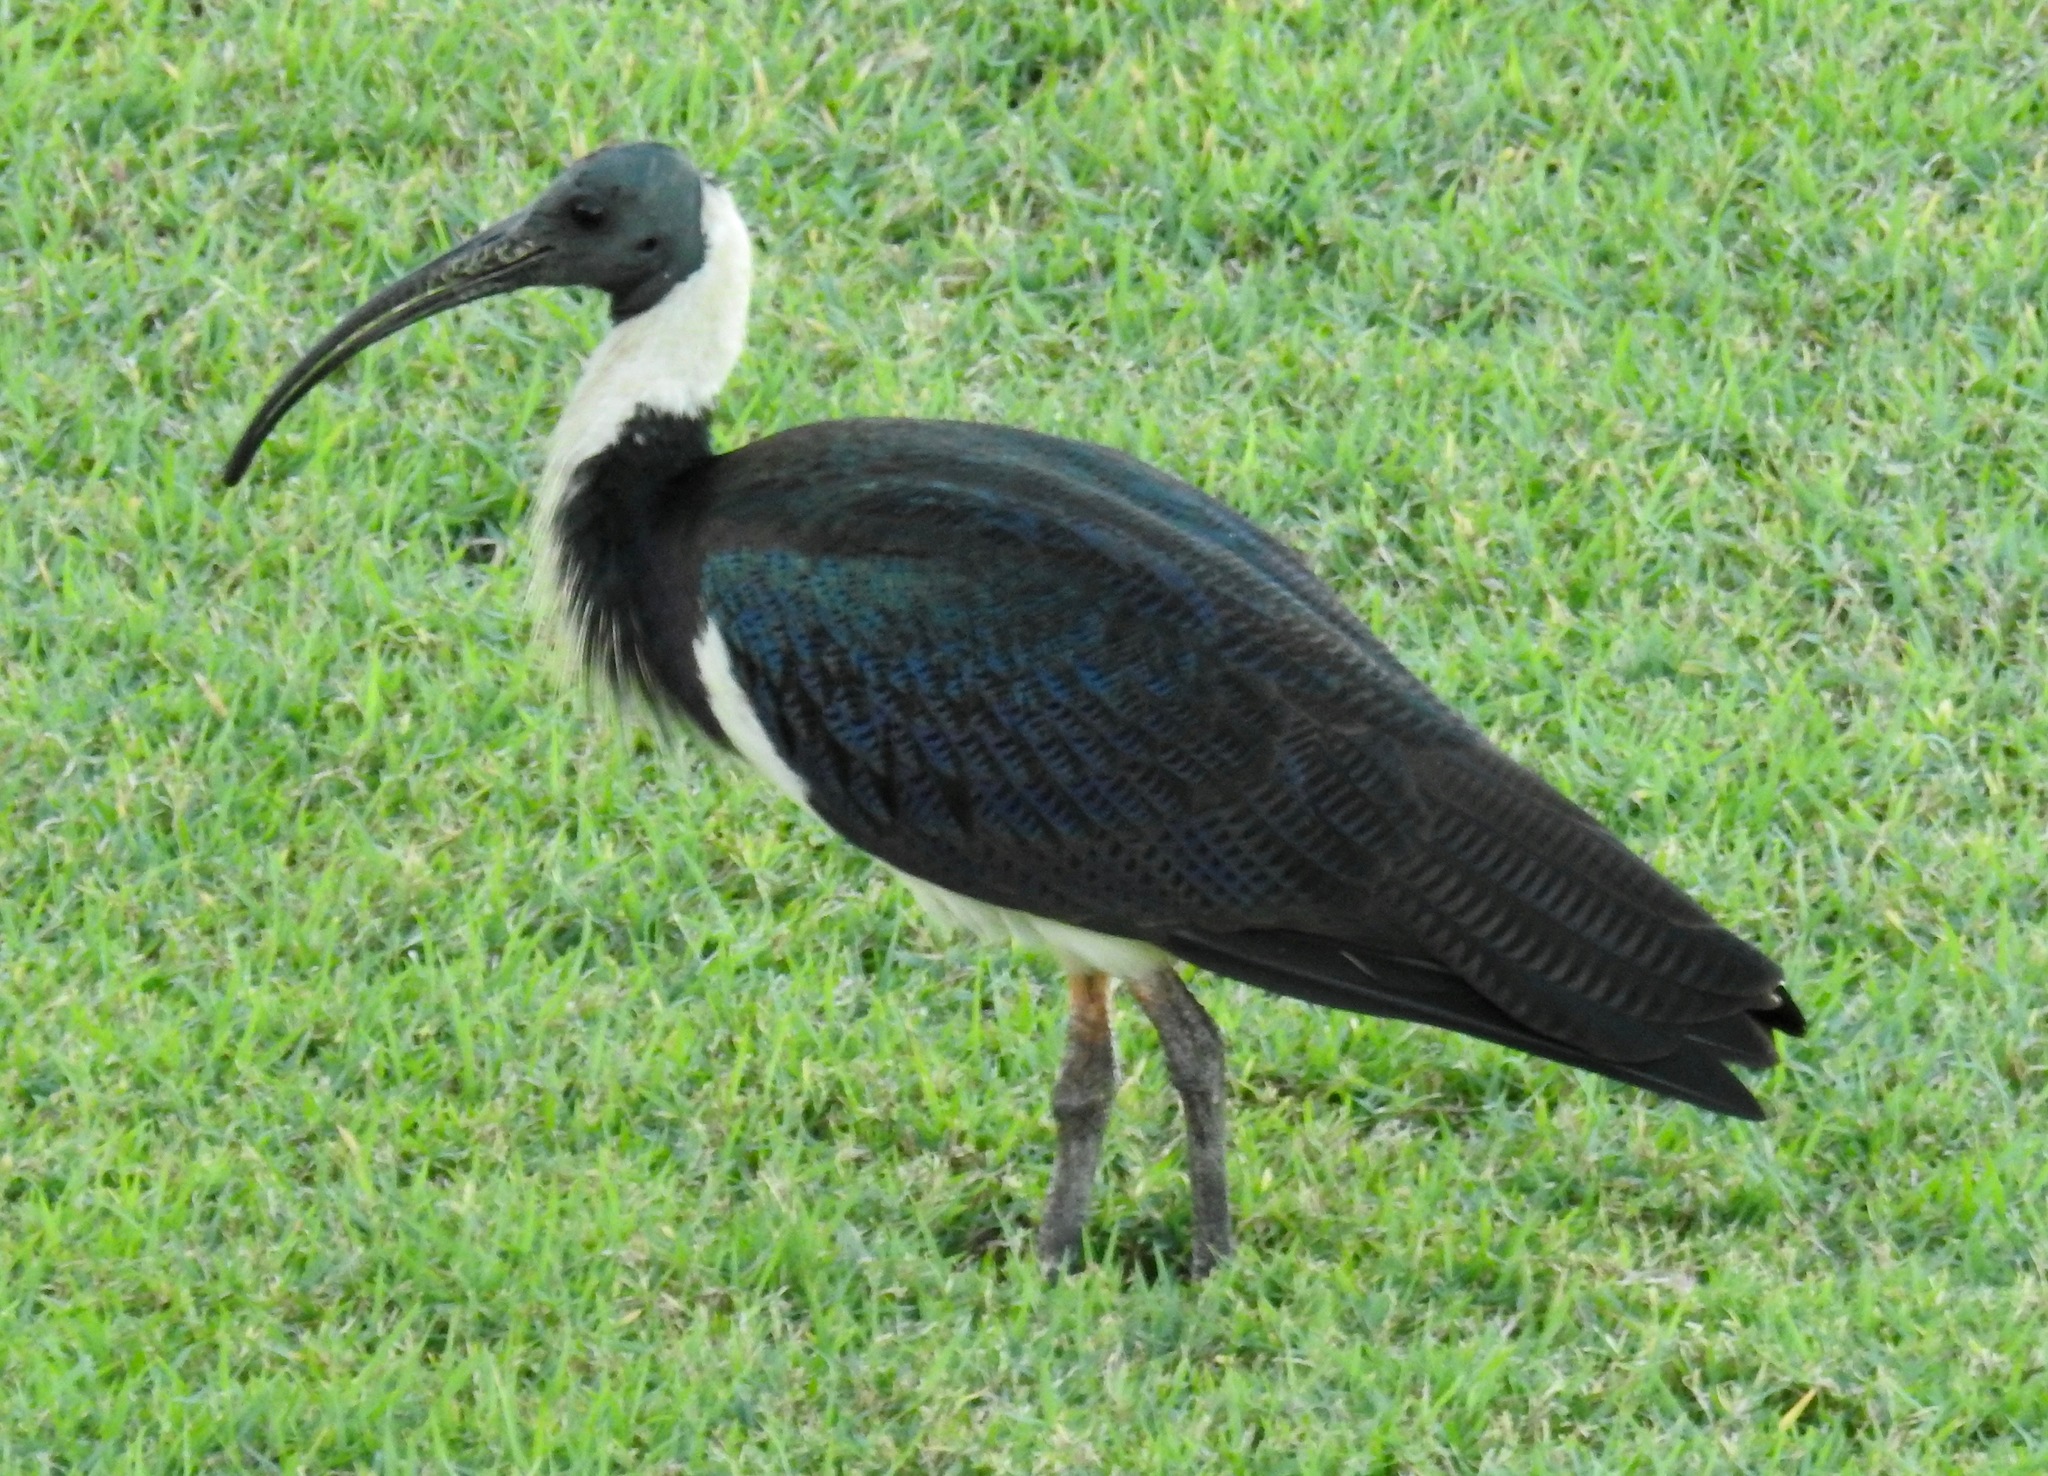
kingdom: Animalia
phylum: Chordata
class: Aves
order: Pelecaniformes
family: Threskiornithidae
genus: Threskiornis
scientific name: Threskiornis spinicollis
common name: Straw-necked ibis
